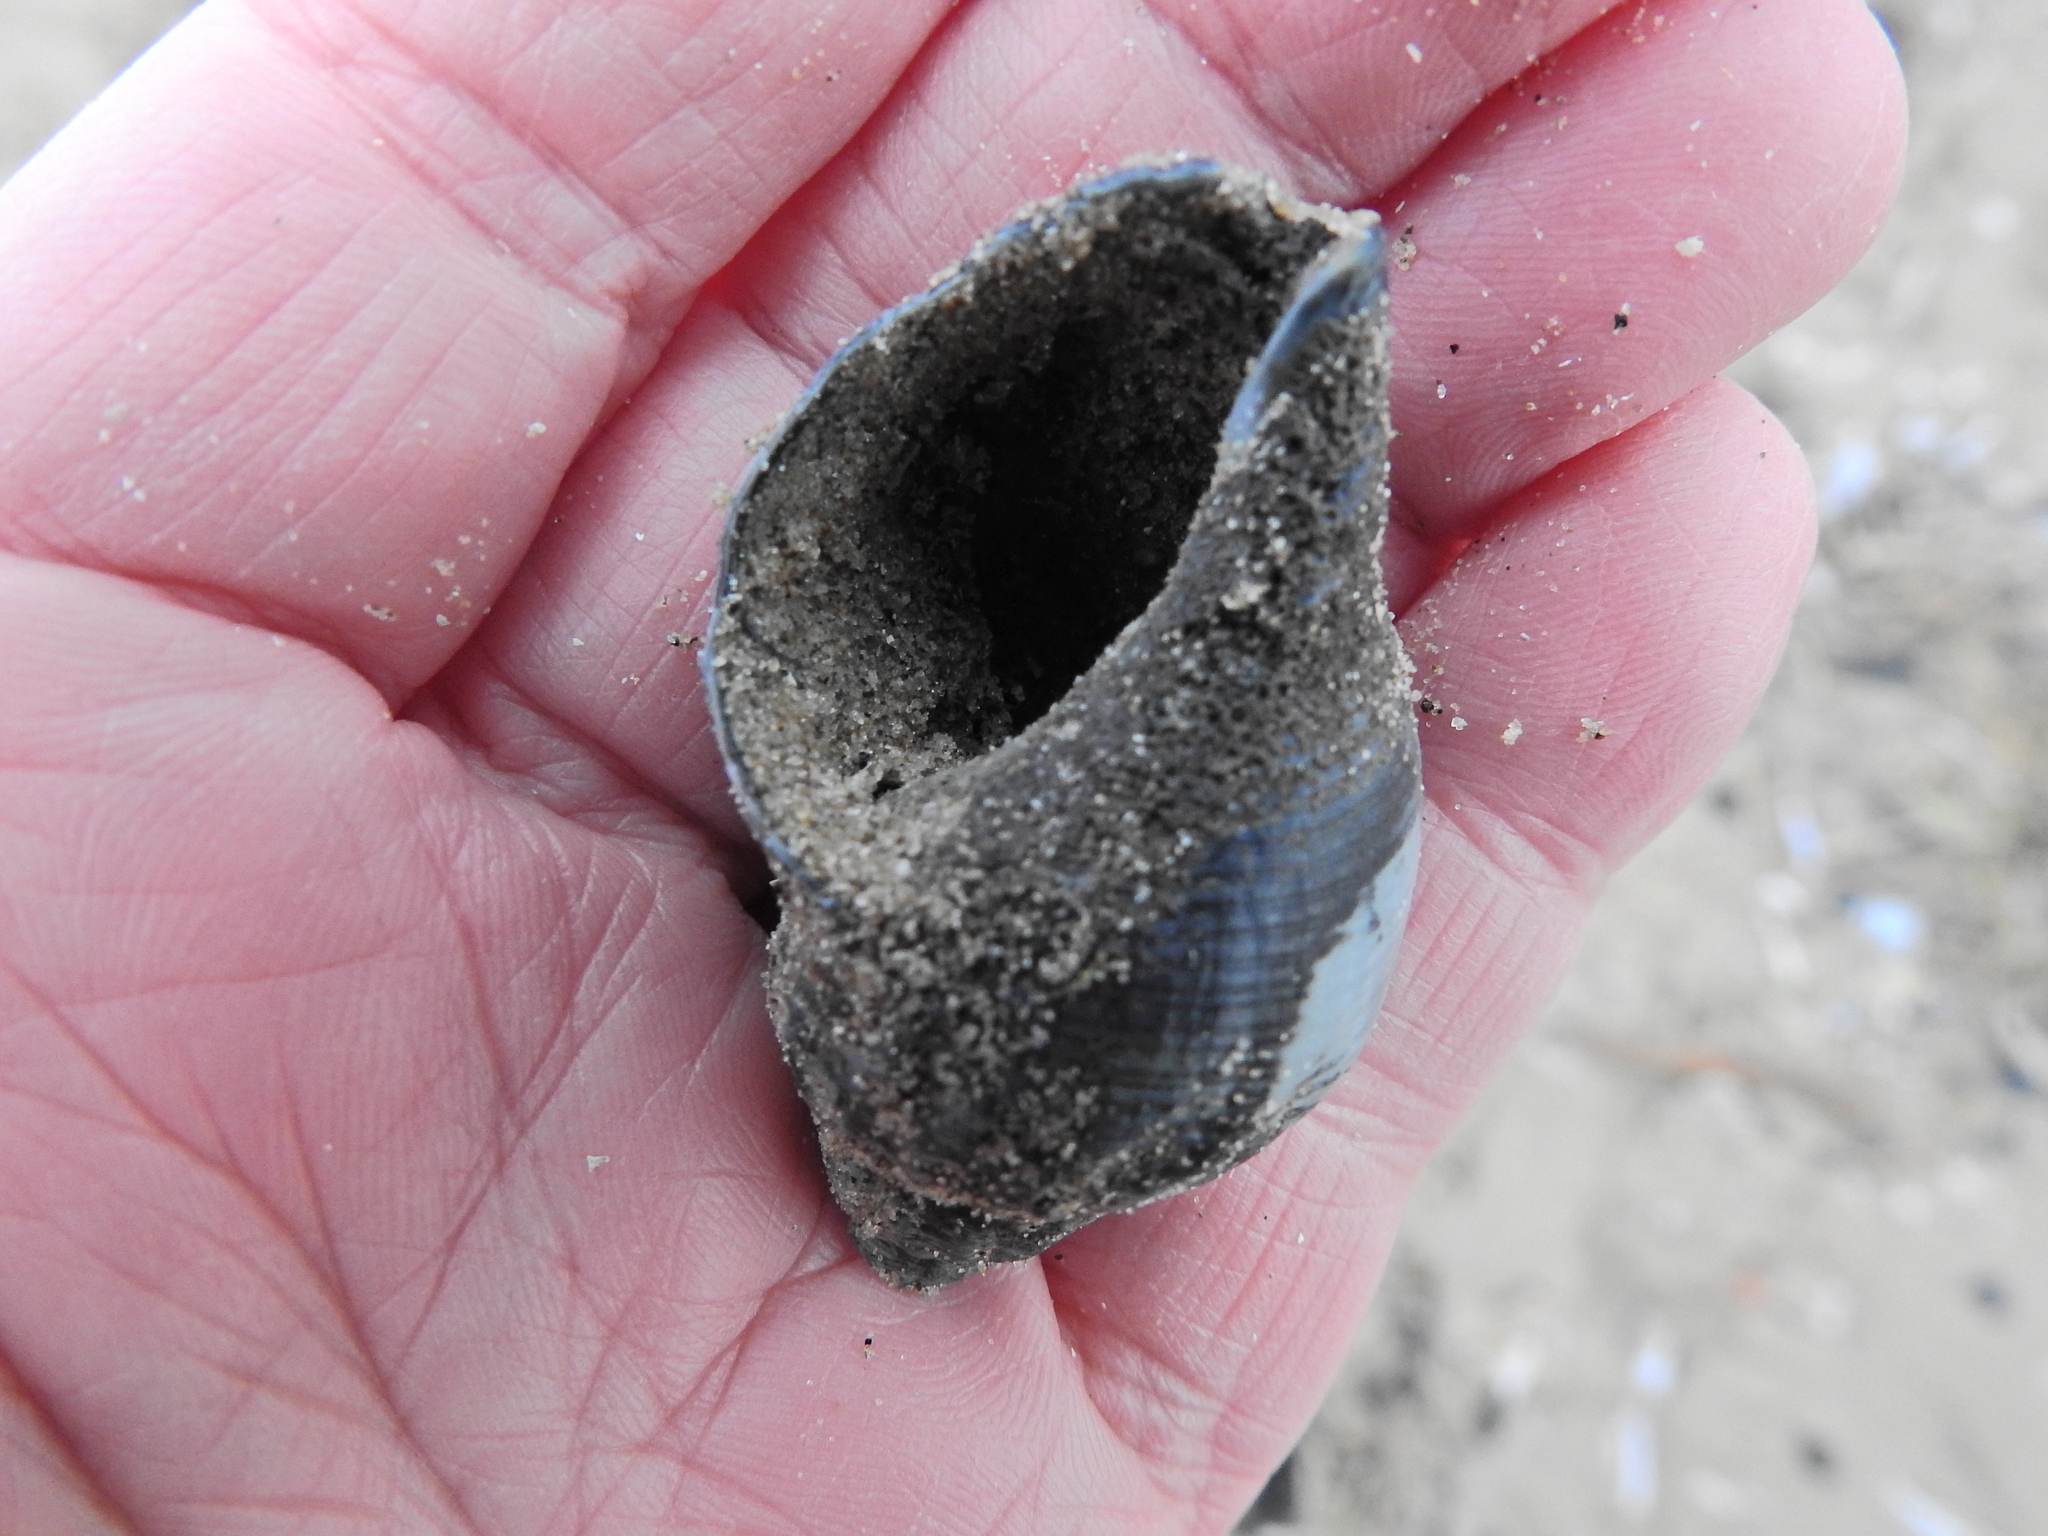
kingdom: Animalia
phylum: Mollusca
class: Gastropoda
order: Neogastropoda
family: Buccinidae
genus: Buccinum
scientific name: Buccinum undatum
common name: Common whelk
